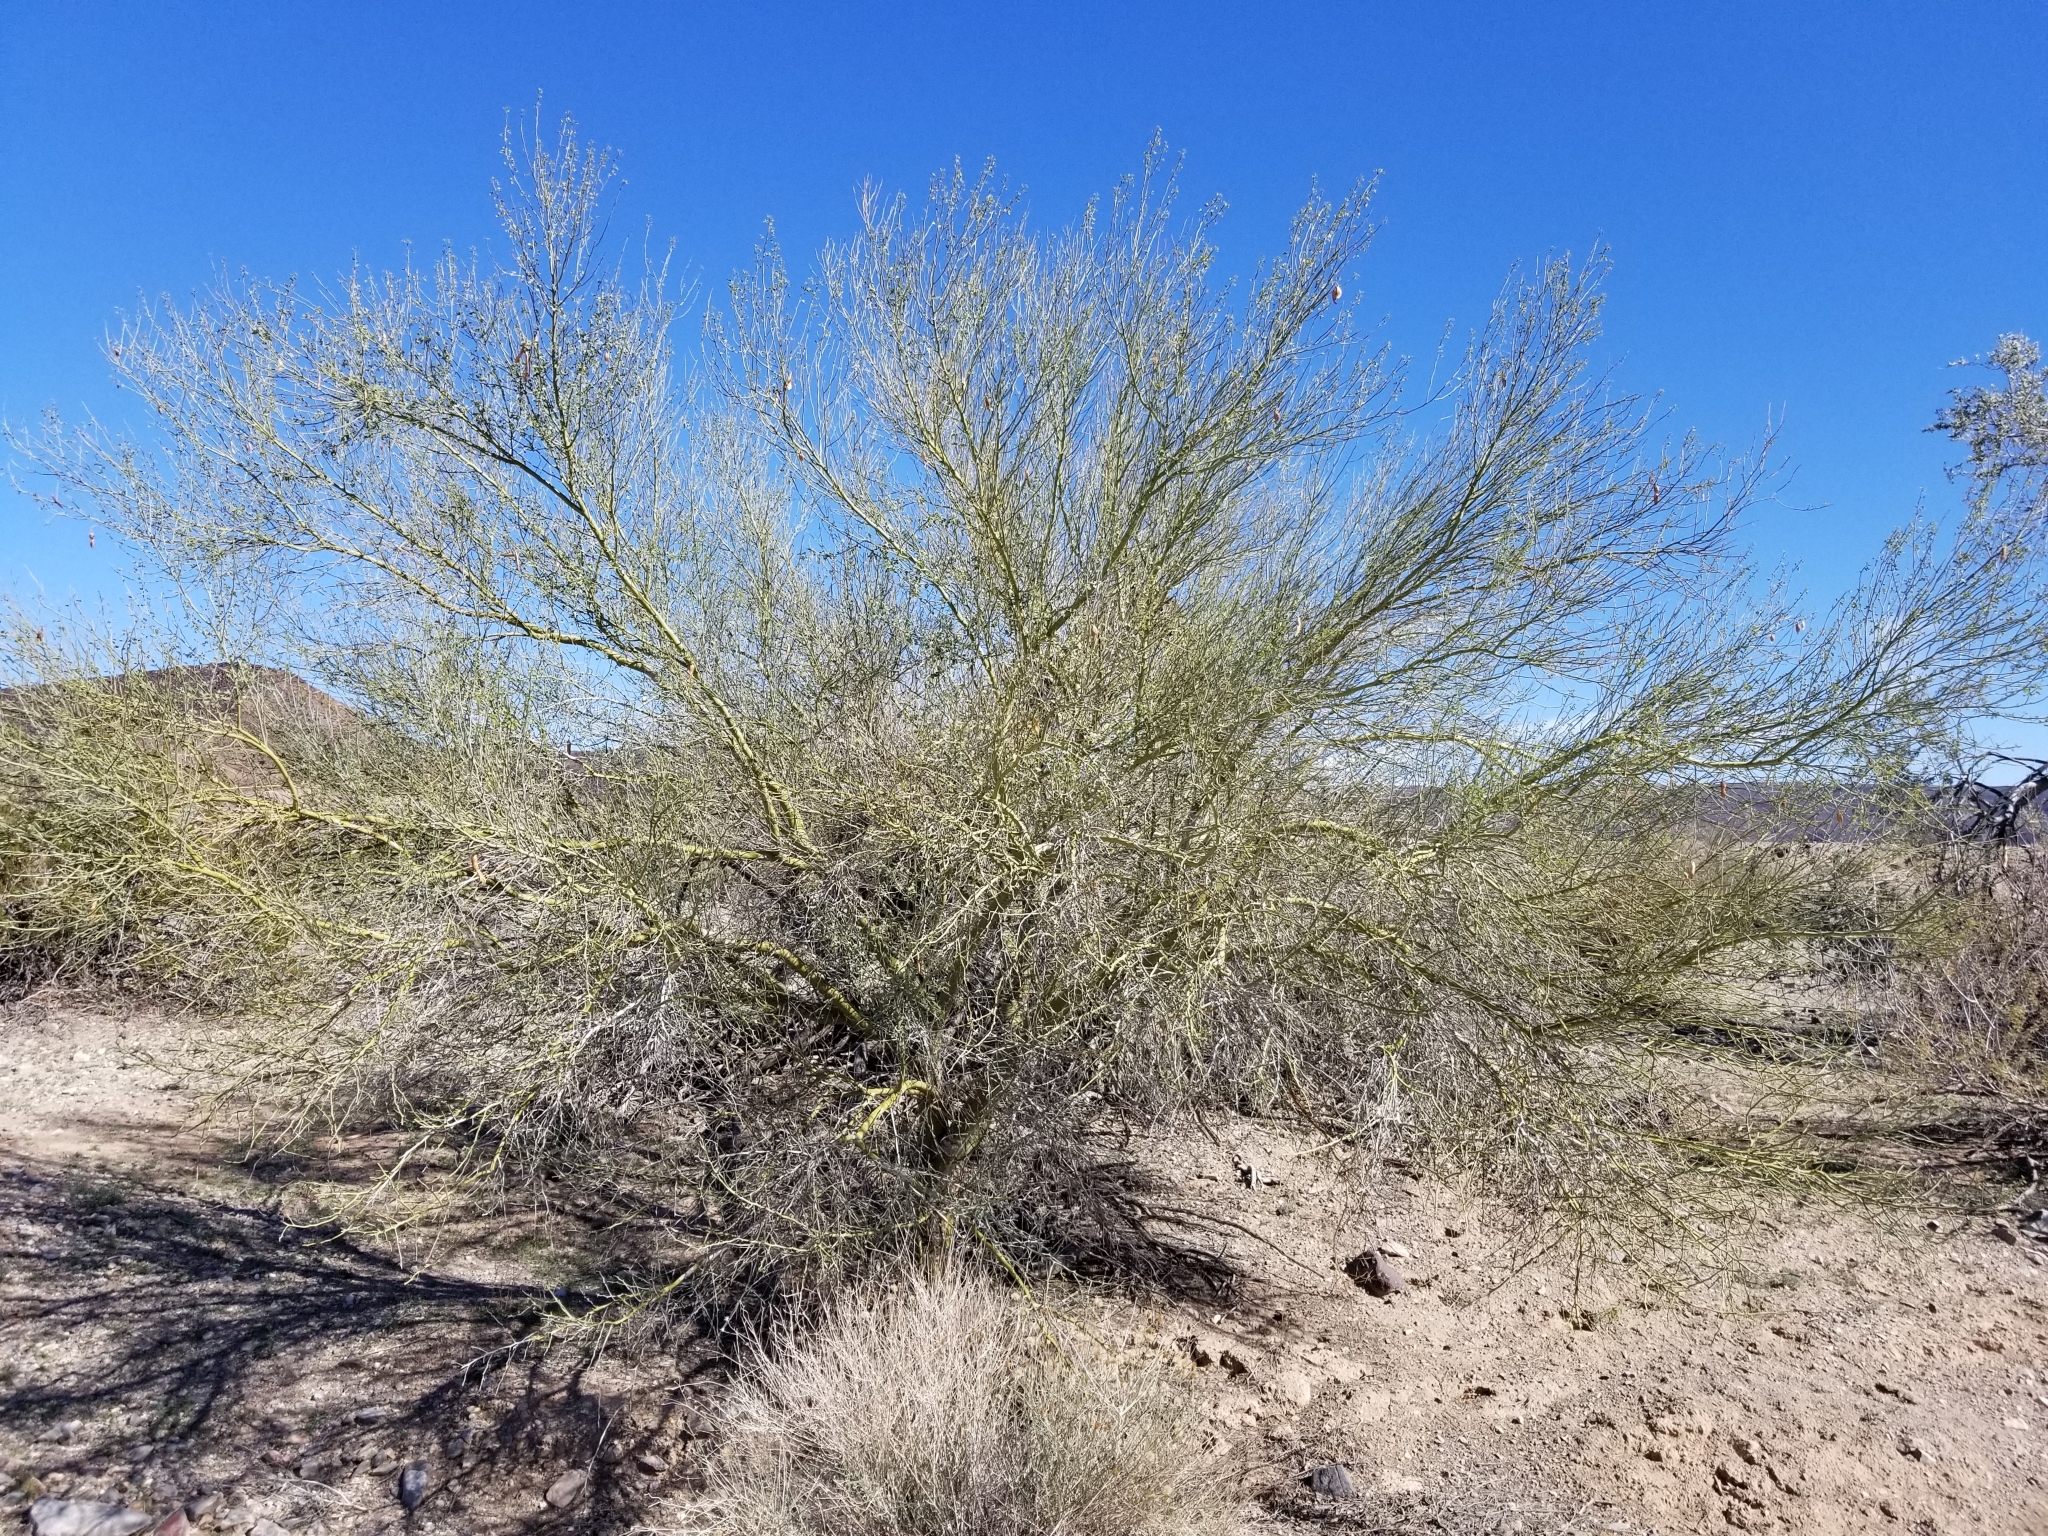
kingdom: Plantae
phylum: Tracheophyta
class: Magnoliopsida
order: Fabales
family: Fabaceae
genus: Parkinsonia
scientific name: Parkinsonia florida
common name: Blue paloverde
